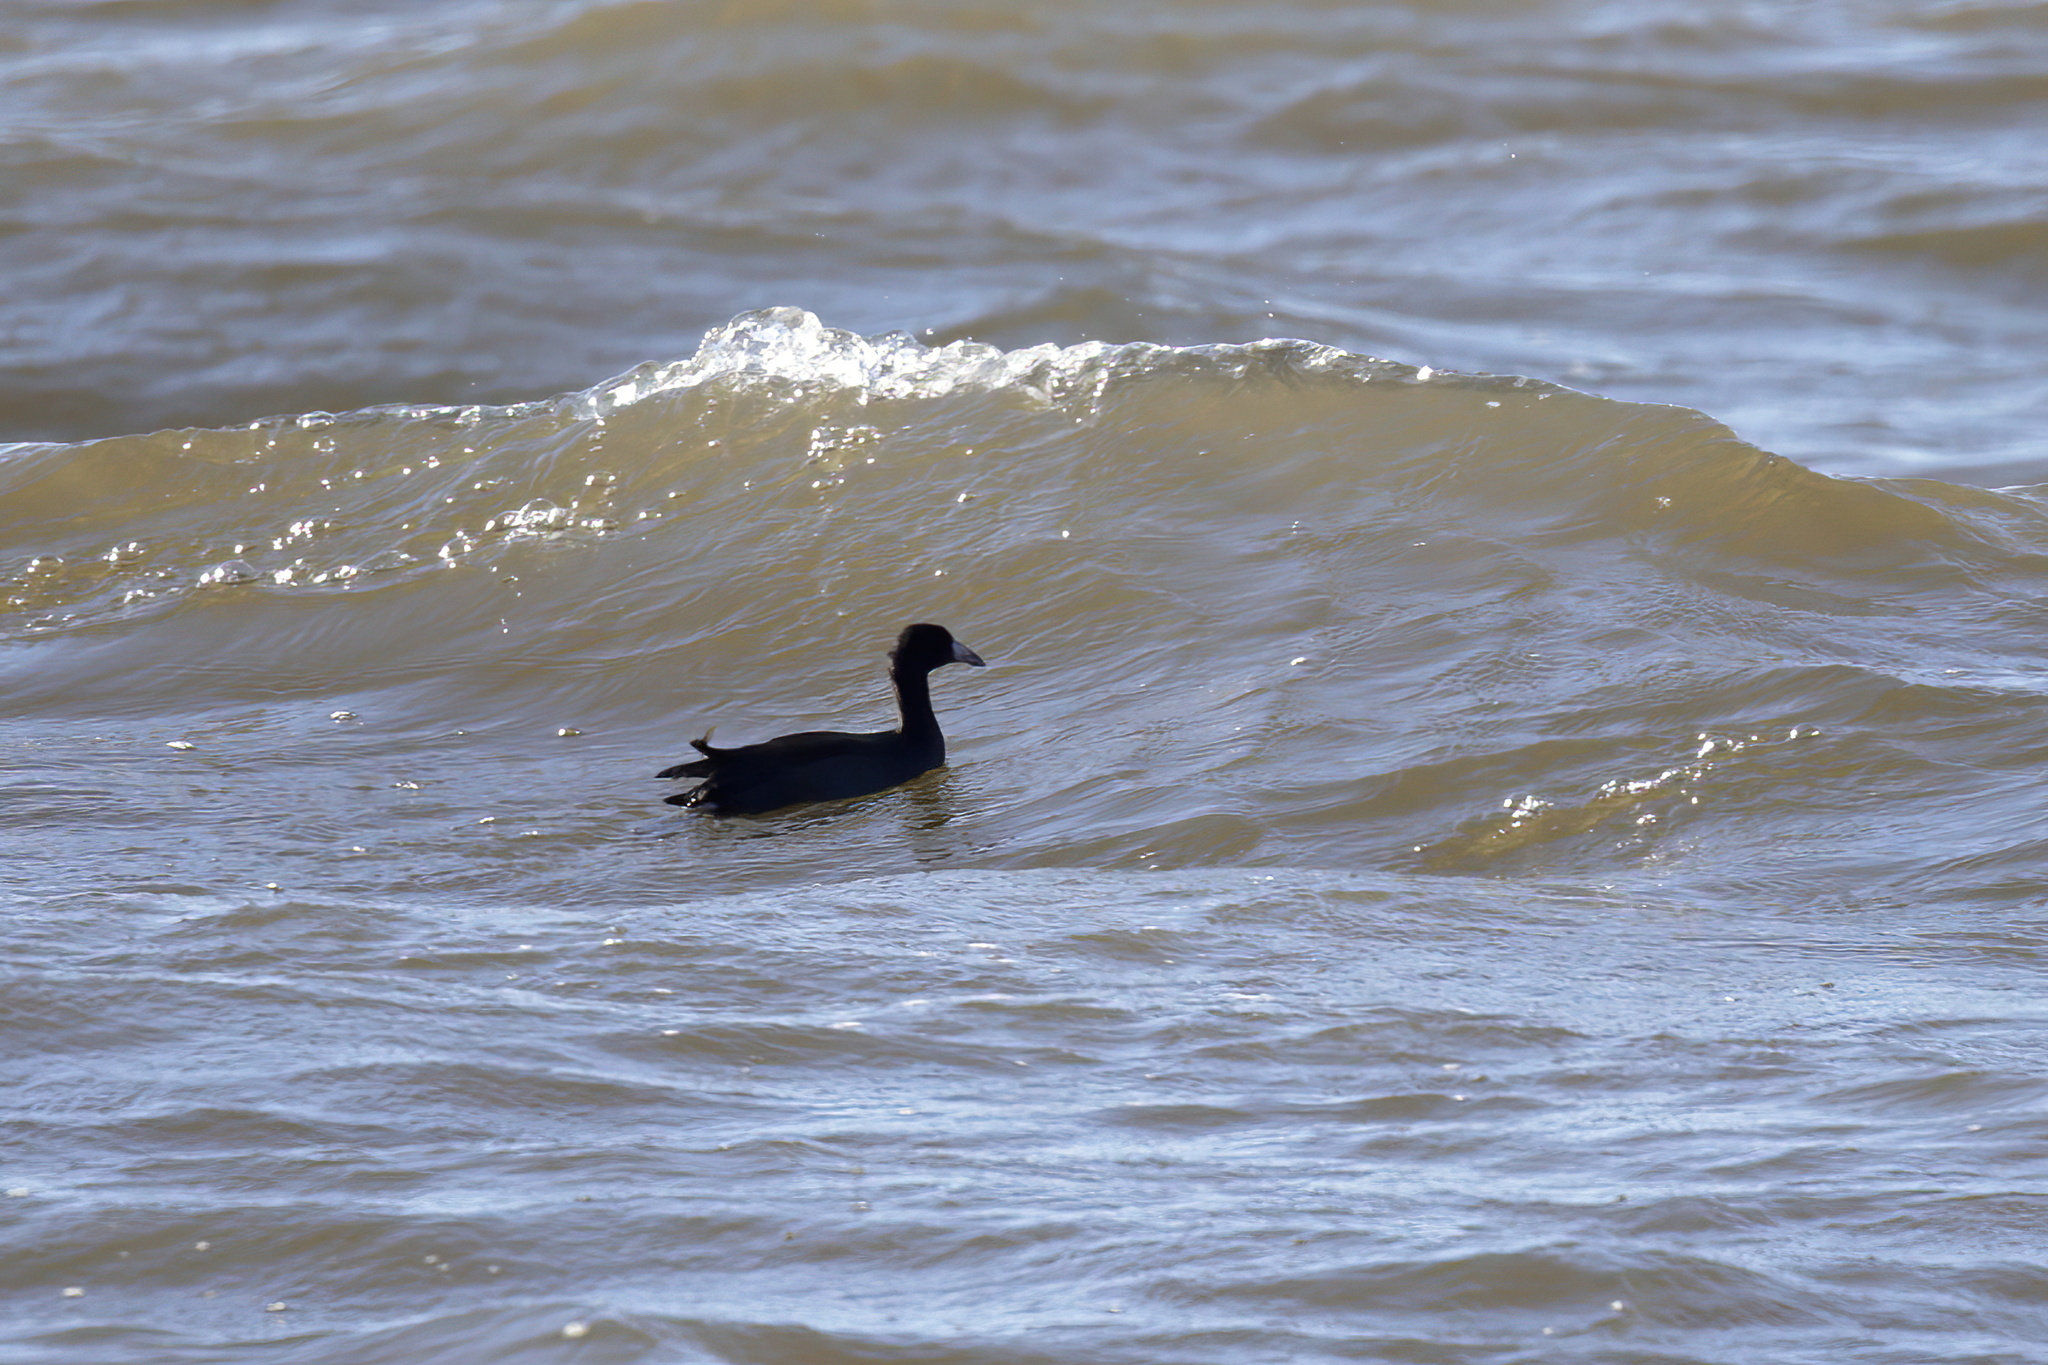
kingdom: Animalia
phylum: Chordata
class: Aves
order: Gruiformes
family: Rallidae
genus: Fulica
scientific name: Fulica americana
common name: American coot
